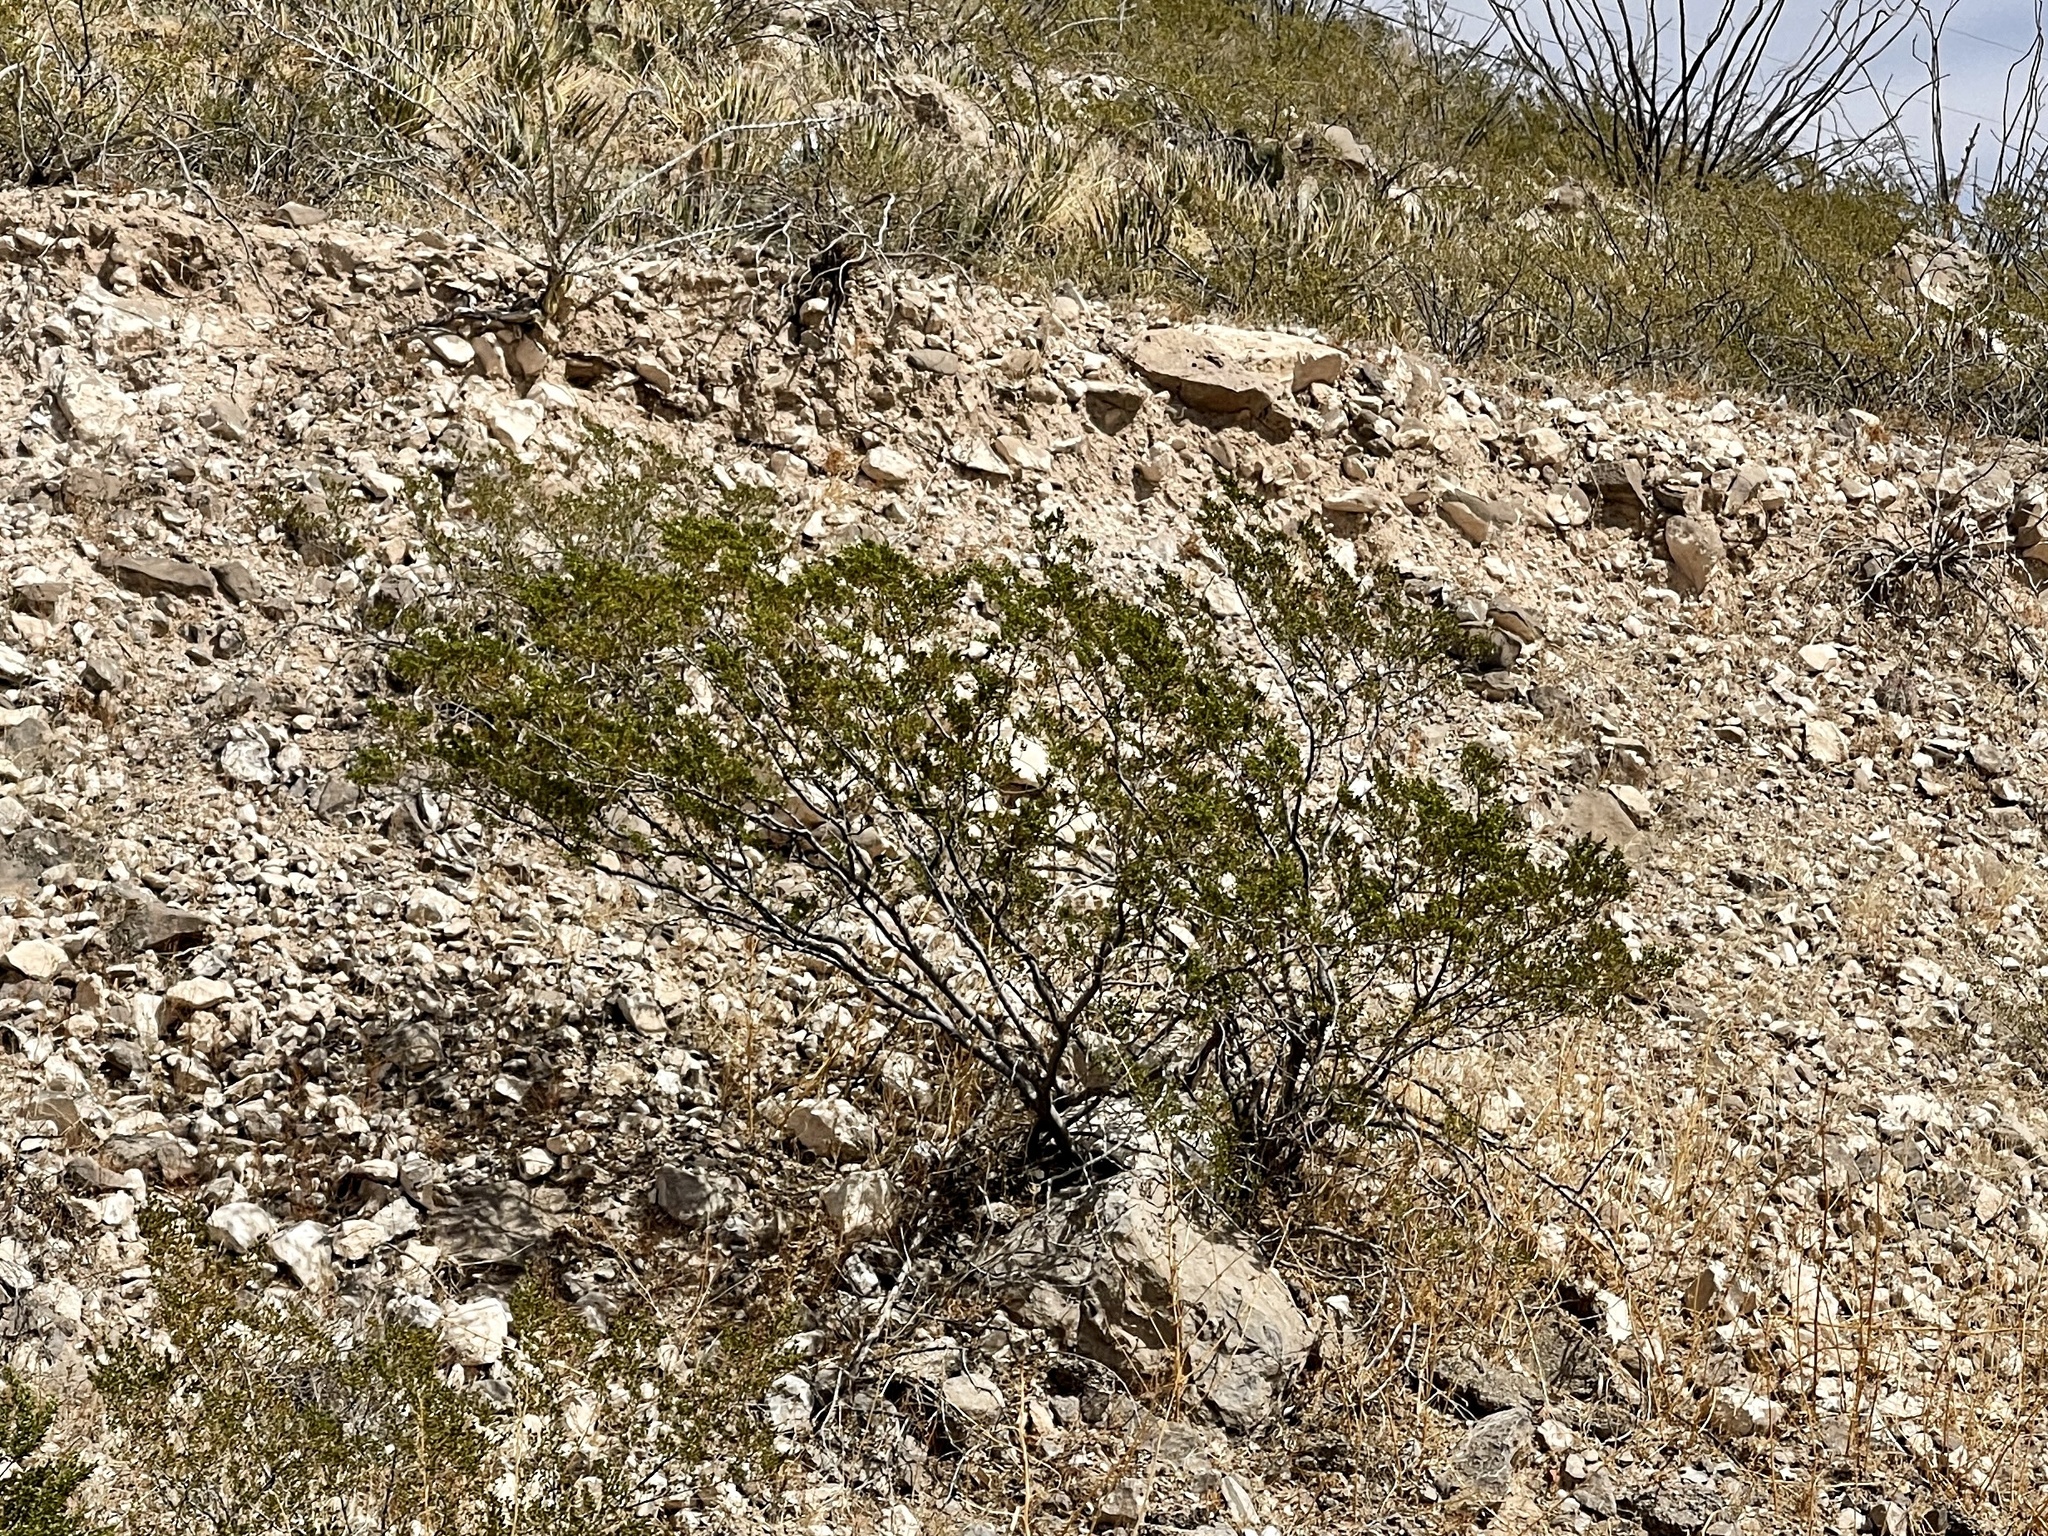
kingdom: Plantae
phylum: Tracheophyta
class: Magnoliopsida
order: Zygophyllales
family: Zygophyllaceae
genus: Larrea
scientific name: Larrea tridentata
